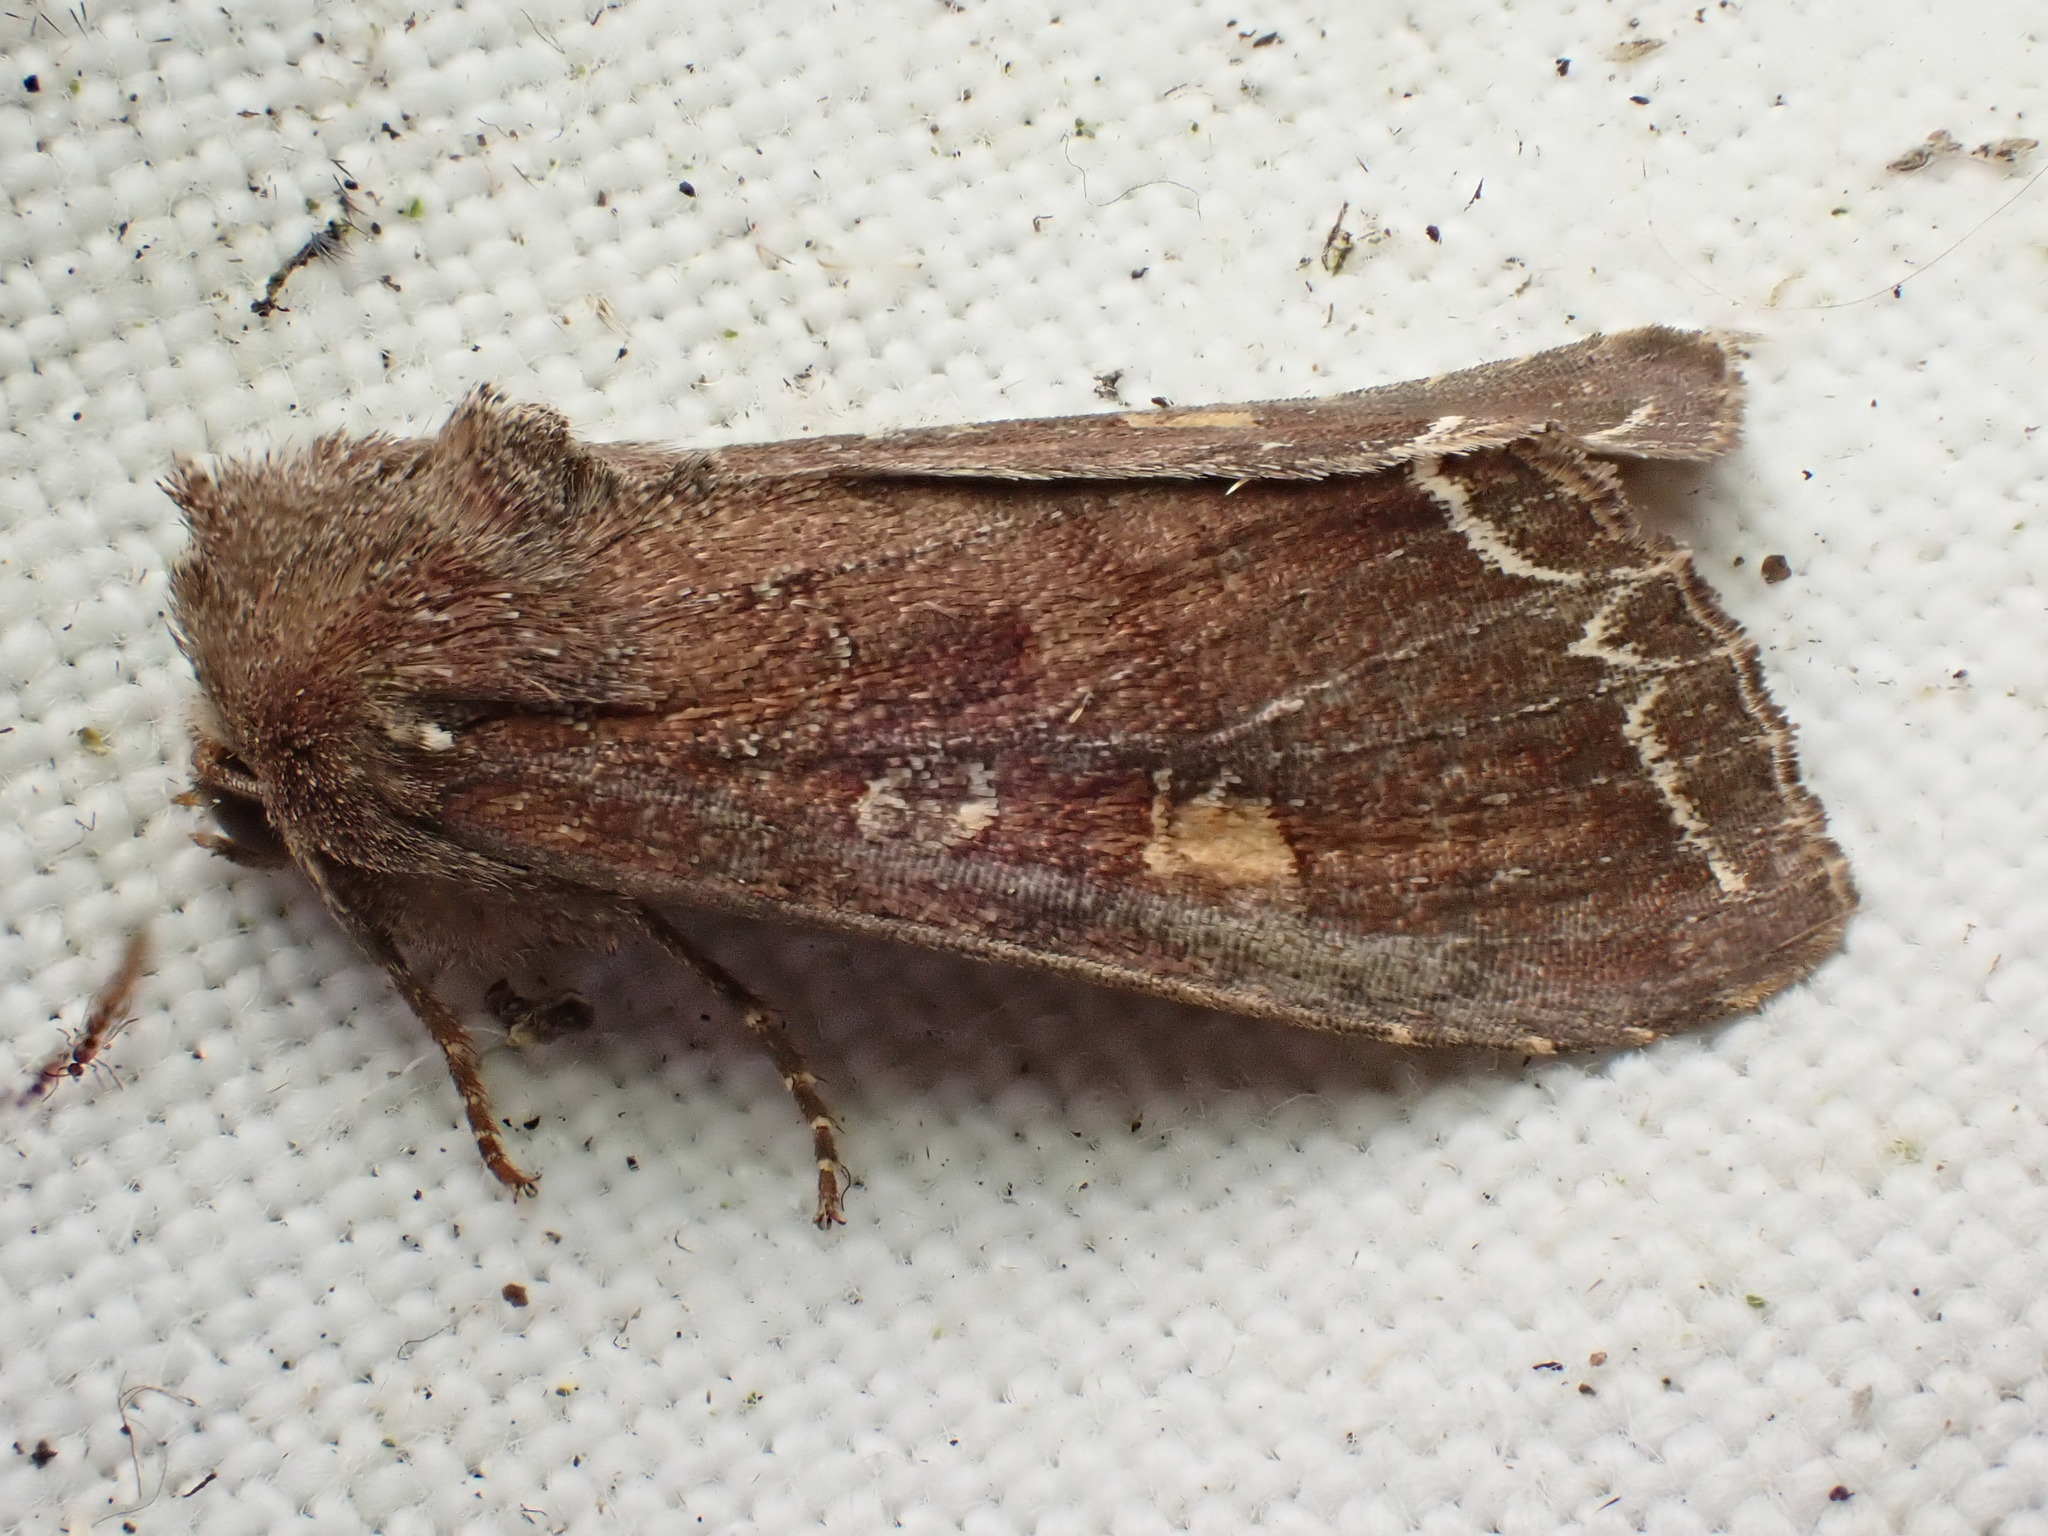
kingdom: Animalia
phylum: Arthropoda
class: Insecta
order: Lepidoptera
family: Noctuidae
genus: Lacanobia
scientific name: Lacanobia oleracea
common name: Bright-line brown-eye
